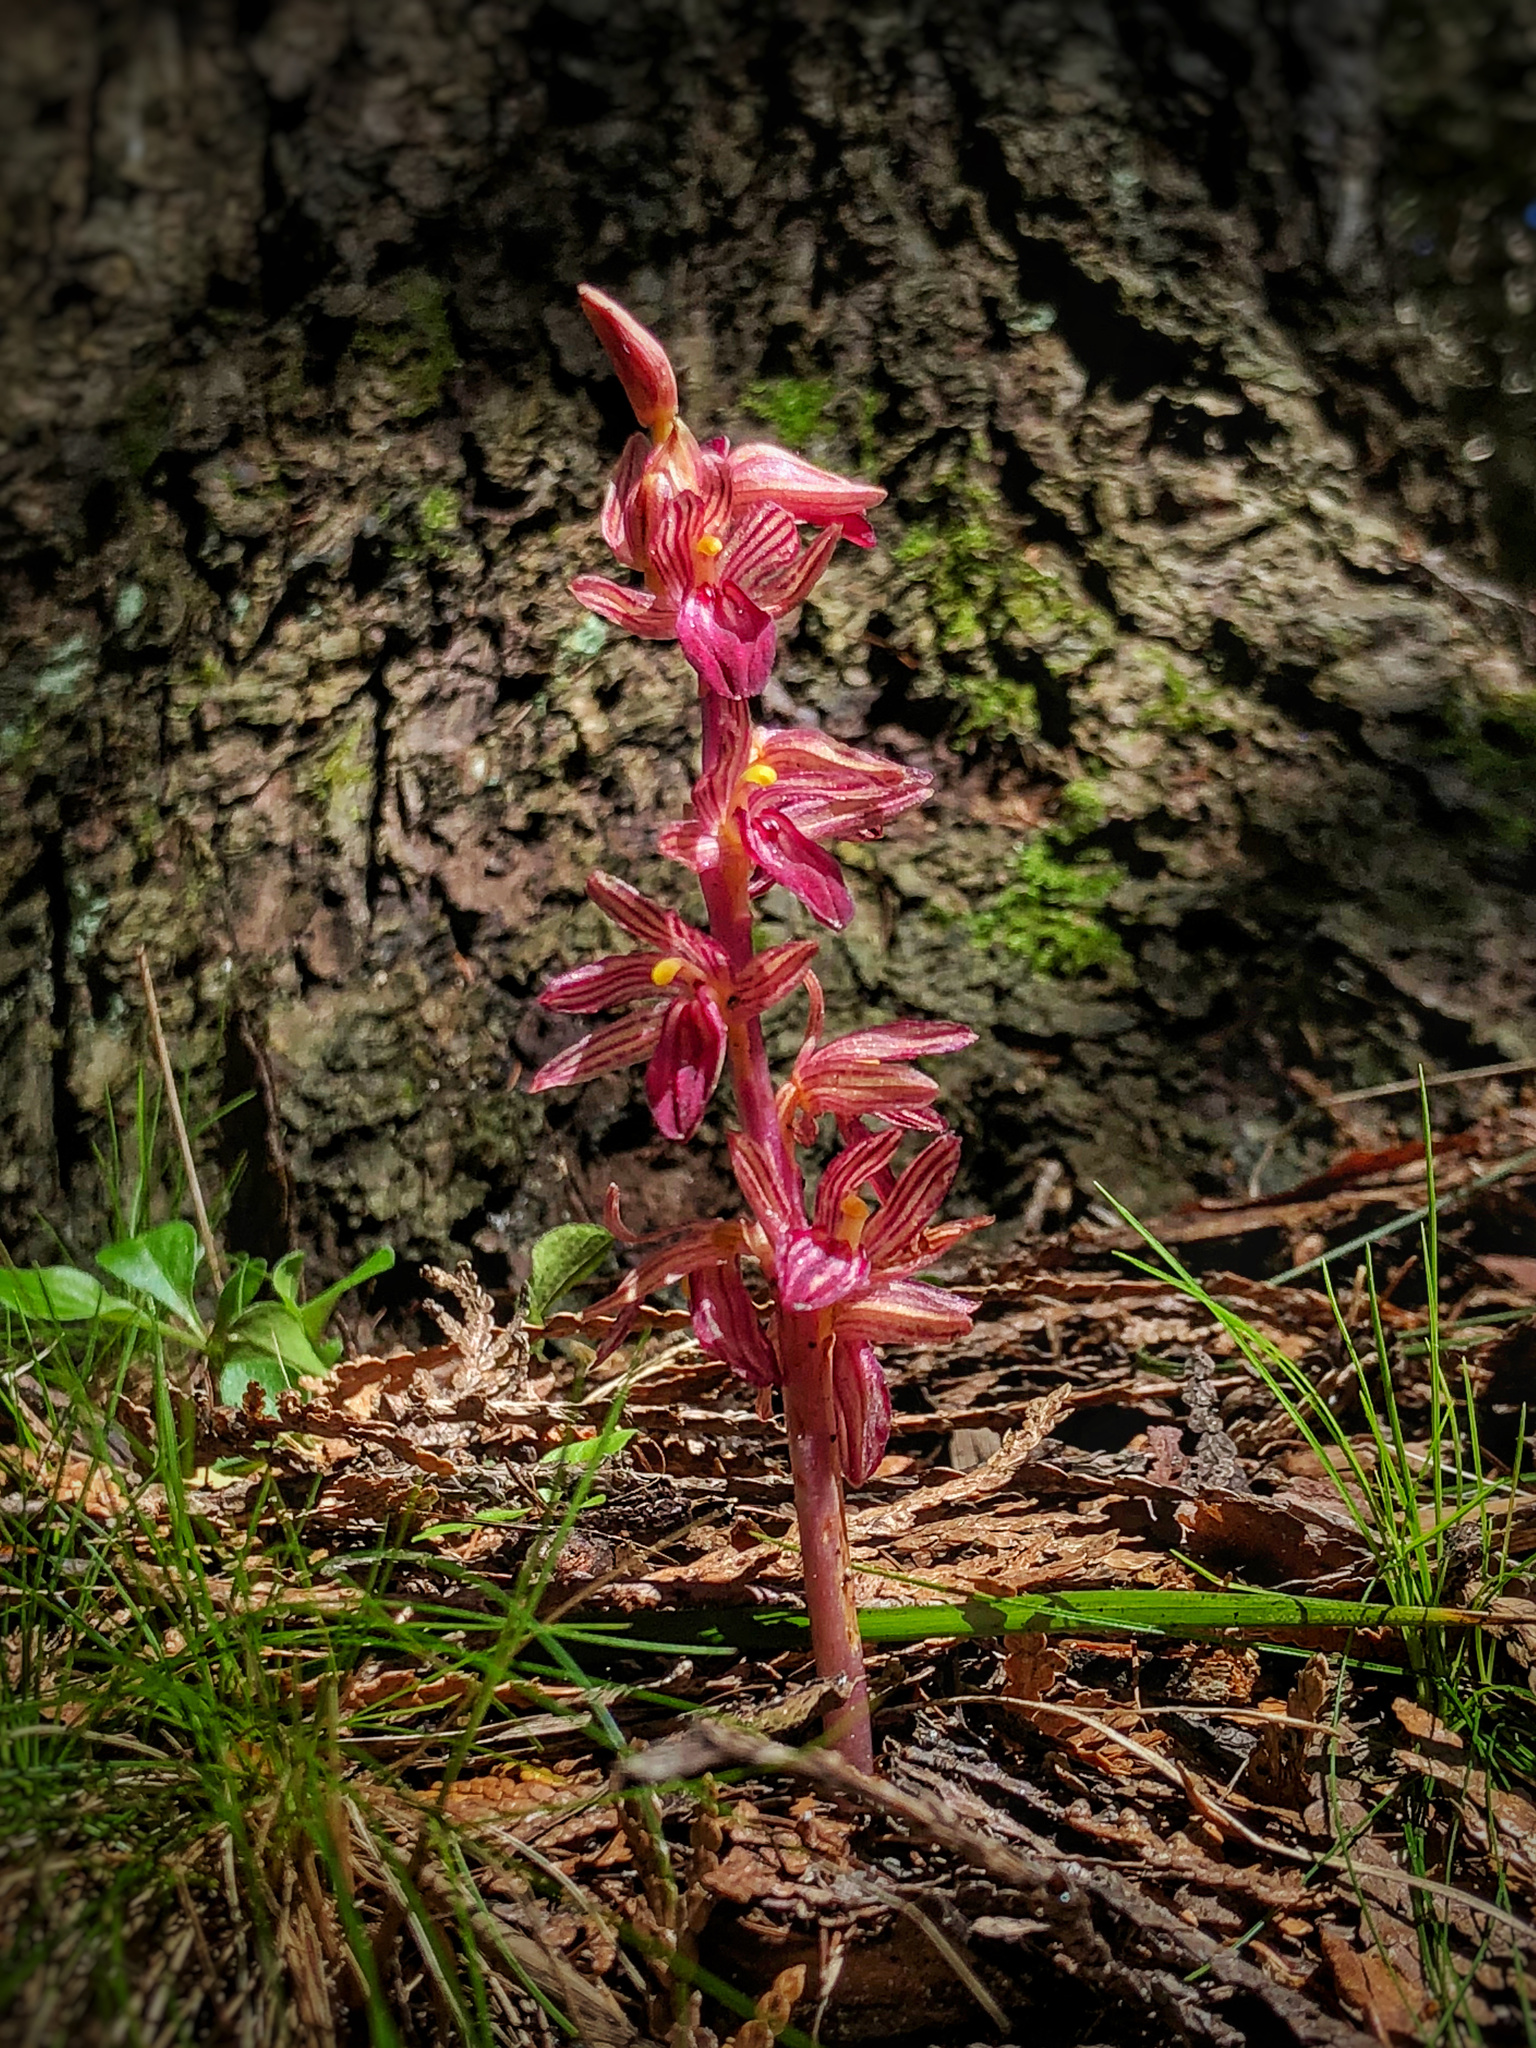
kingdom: Plantae
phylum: Tracheophyta
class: Liliopsida
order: Asparagales
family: Orchidaceae
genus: Corallorhiza
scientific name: Corallorhiza striata
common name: Hooded coralroot
